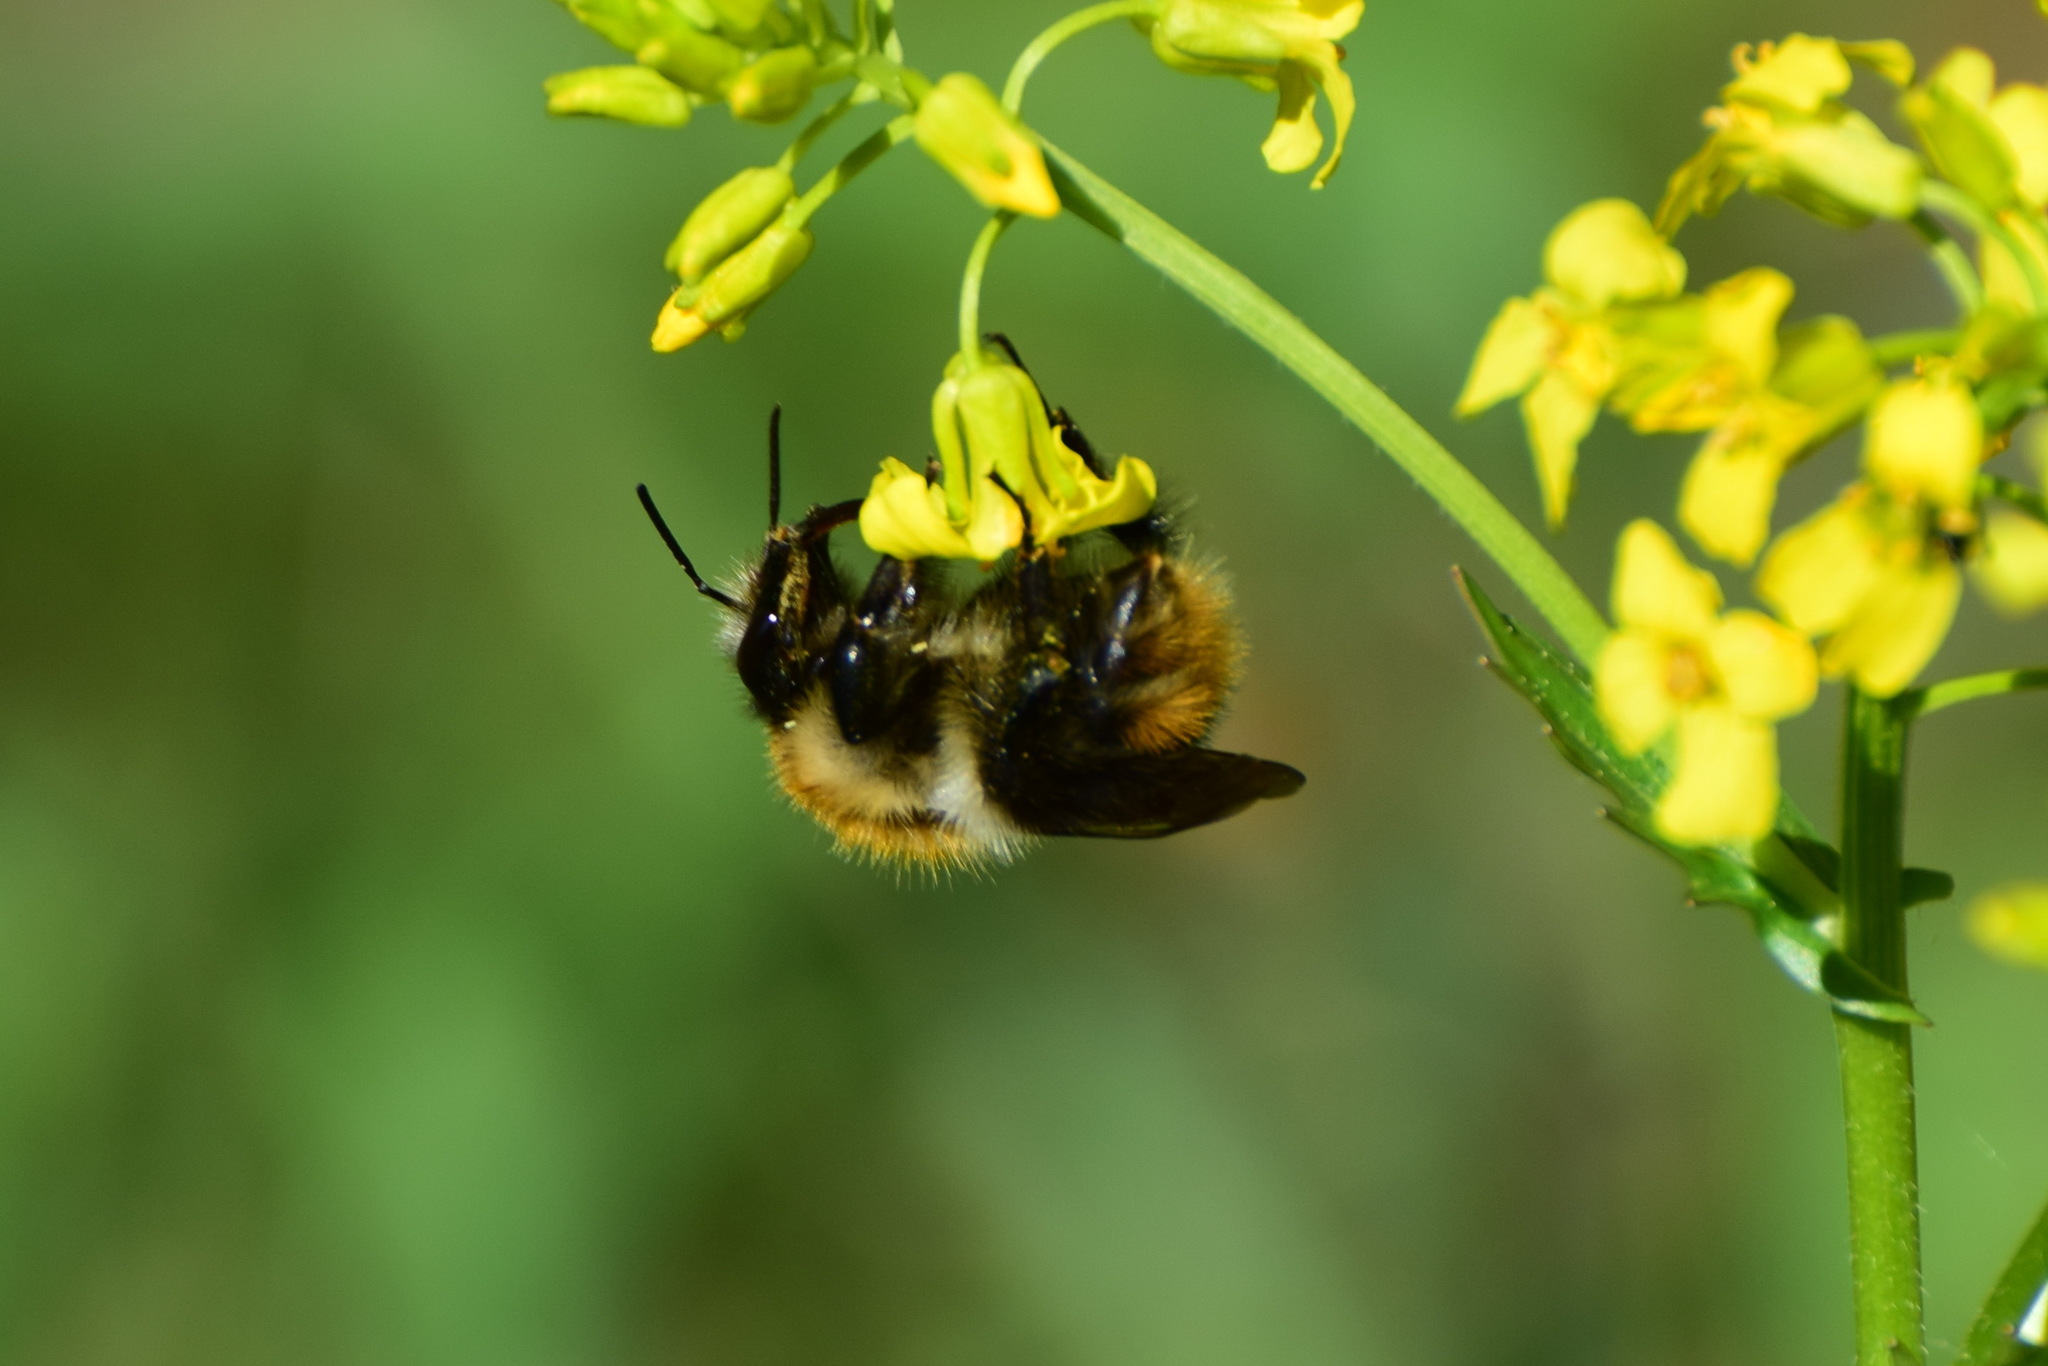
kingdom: Animalia
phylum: Arthropoda
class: Insecta
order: Hymenoptera
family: Apidae
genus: Bombus
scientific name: Bombus pascuorum
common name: Common carder bee
